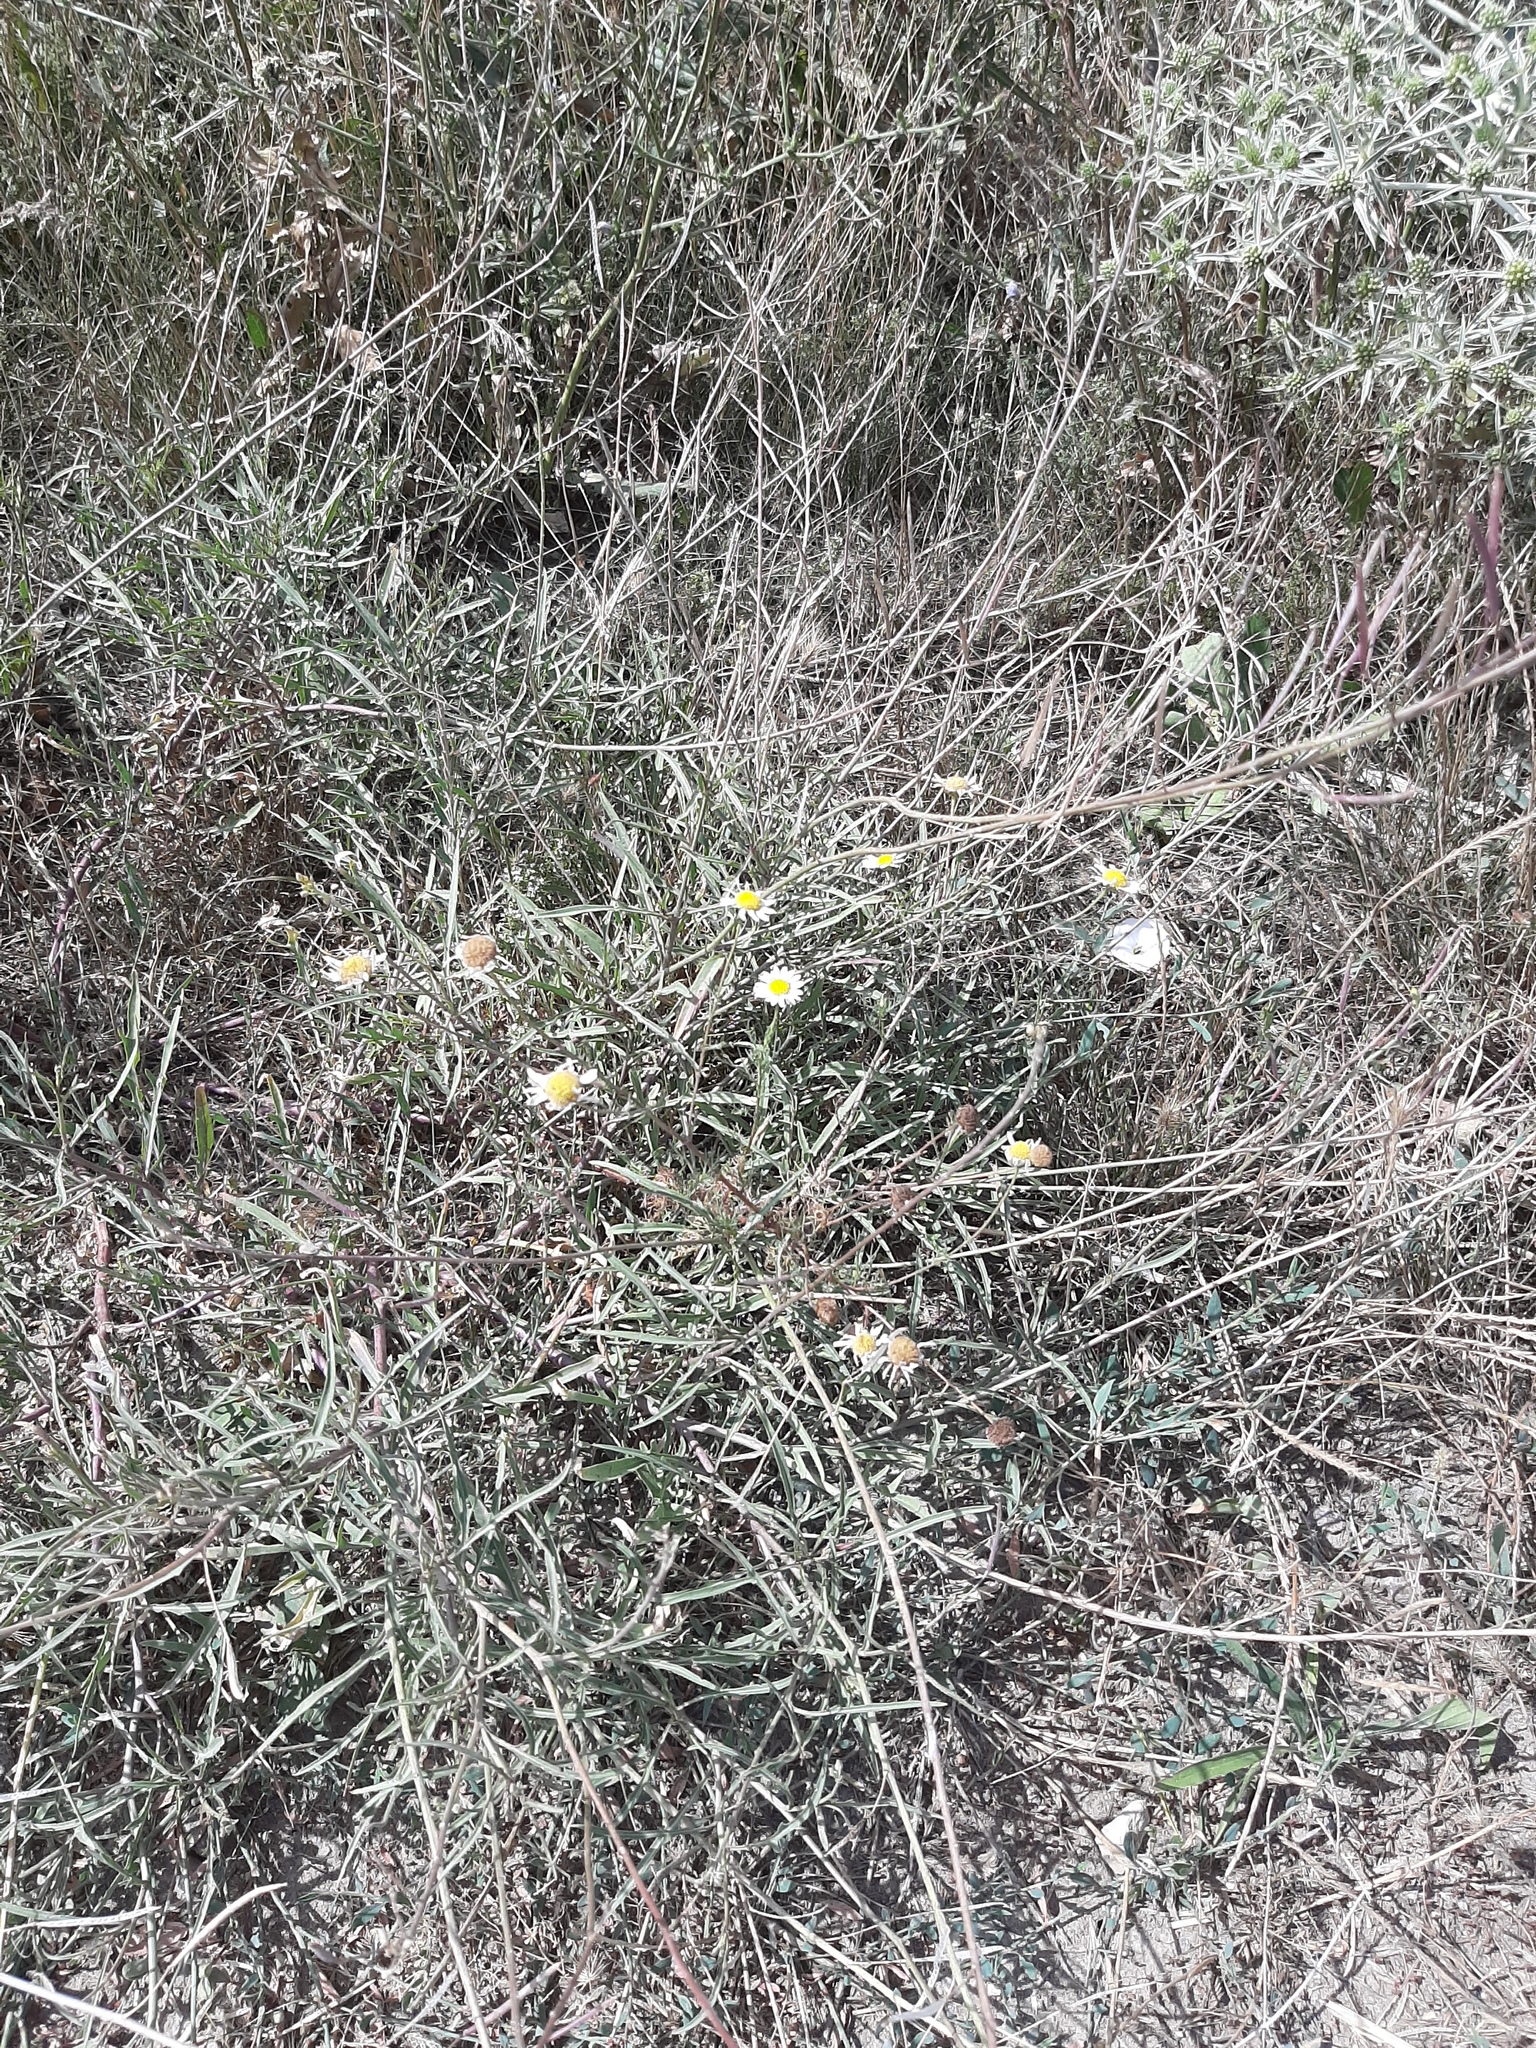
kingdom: Plantae
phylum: Tracheophyta
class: Magnoliopsida
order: Asterales
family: Asteraceae
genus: Anthemis
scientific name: Anthemis cotula
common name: Stinking chamomile
